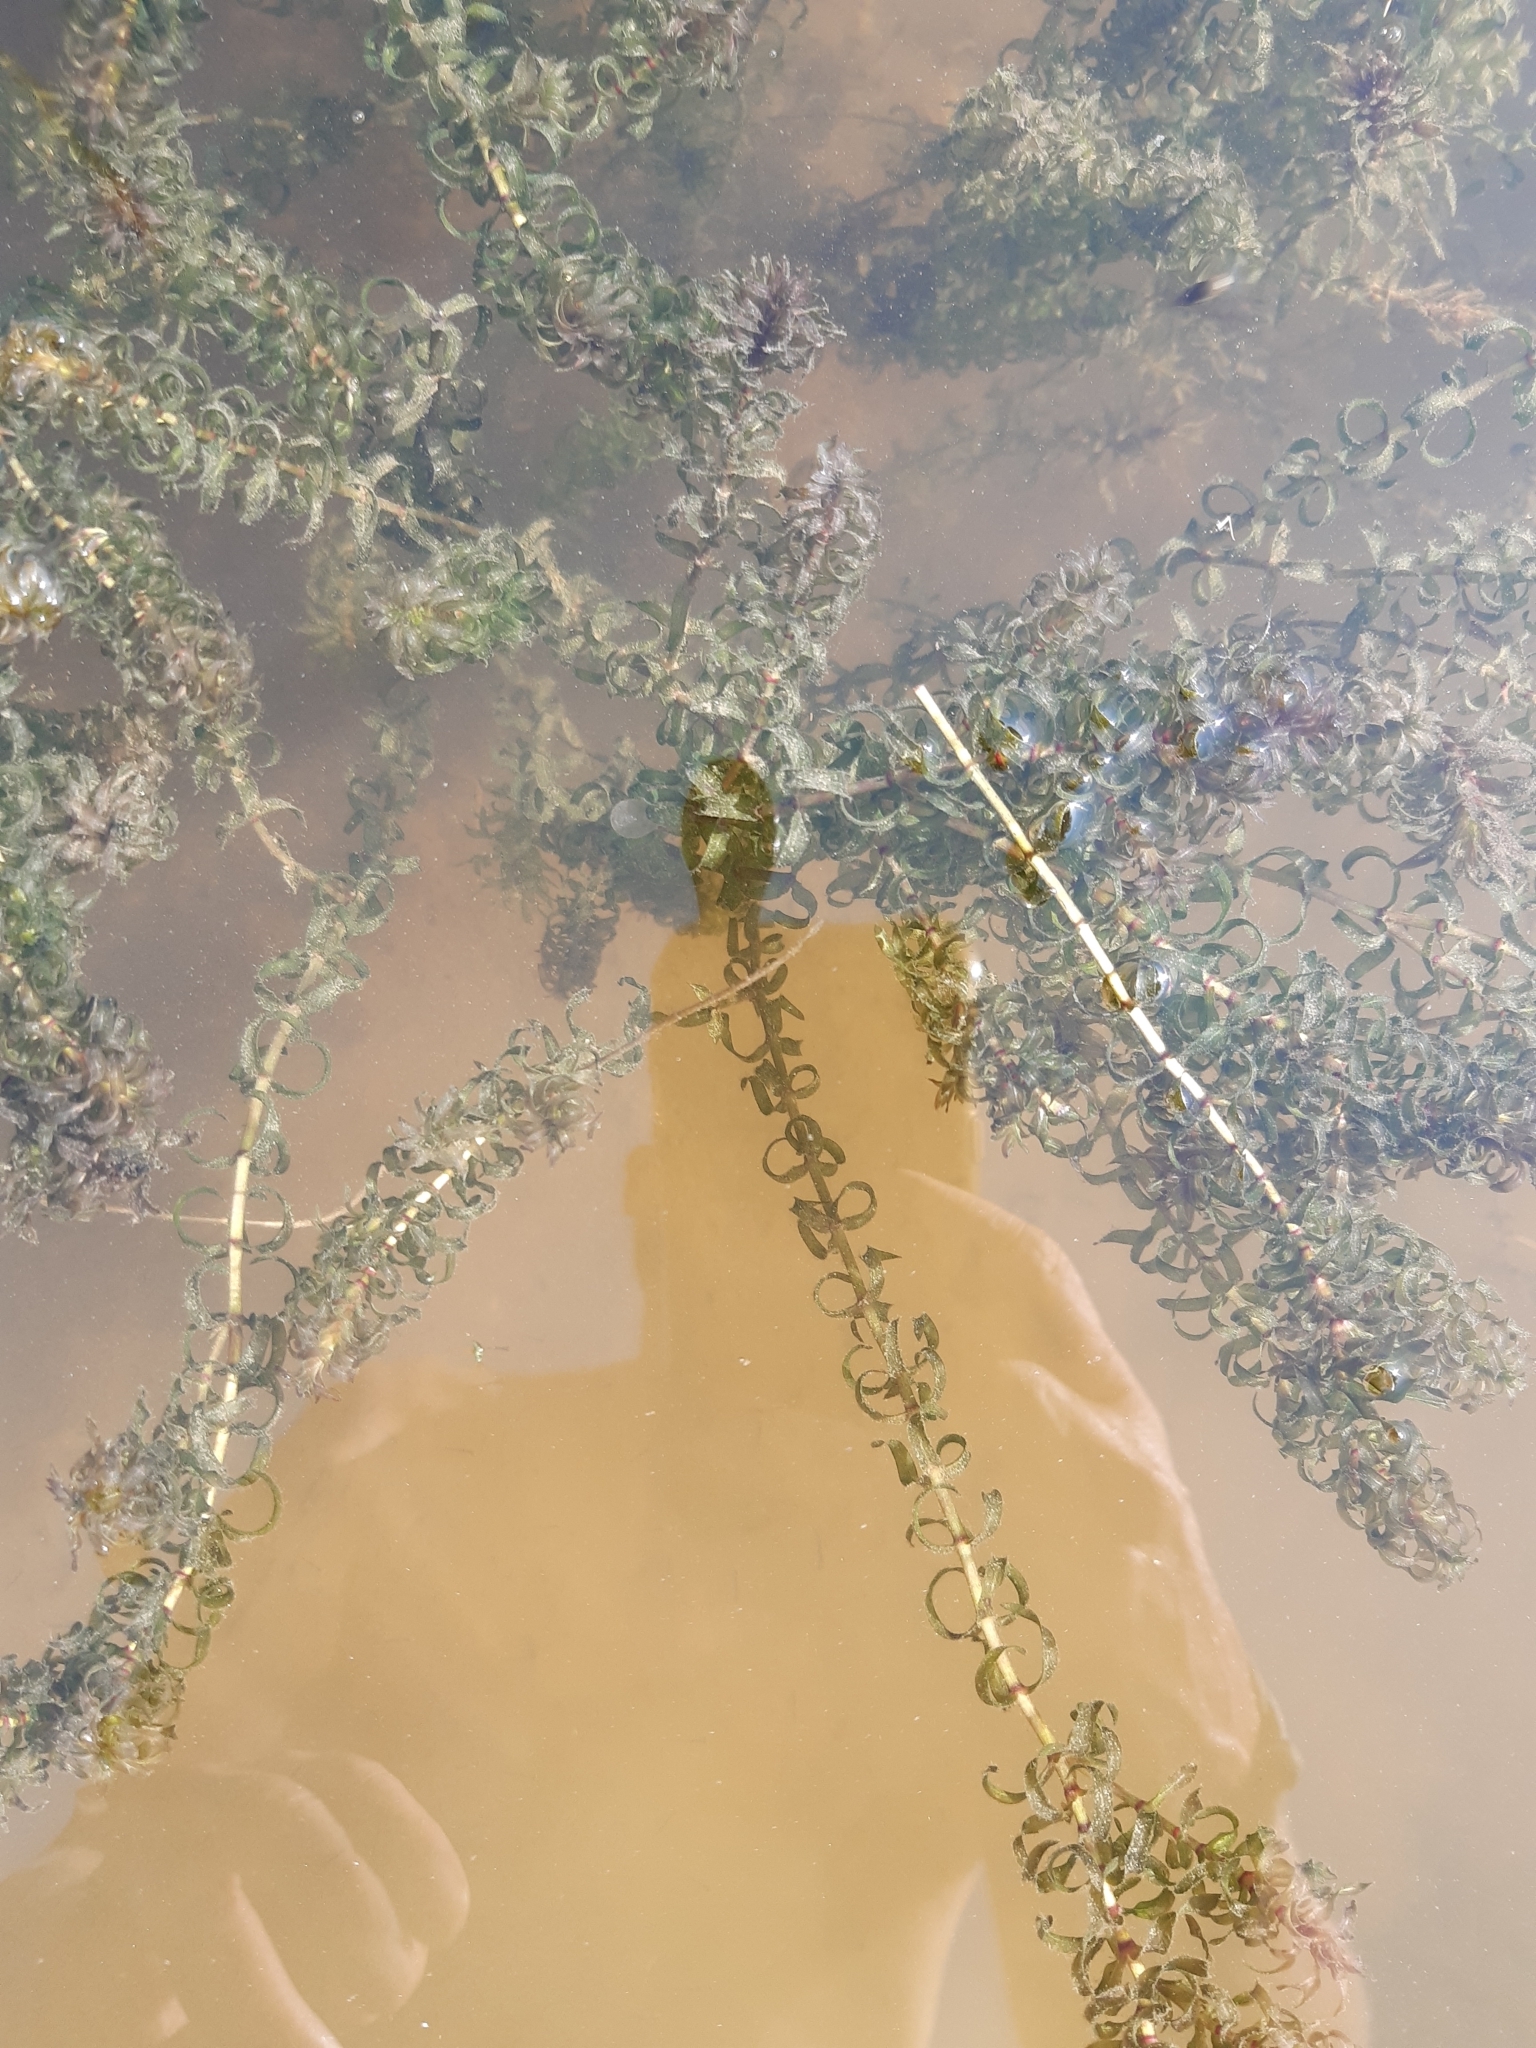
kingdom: Plantae
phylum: Tracheophyta
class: Liliopsida
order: Alismatales
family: Hydrocharitaceae
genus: Elodea
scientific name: Elodea canadensis
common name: Canadian waterweed
